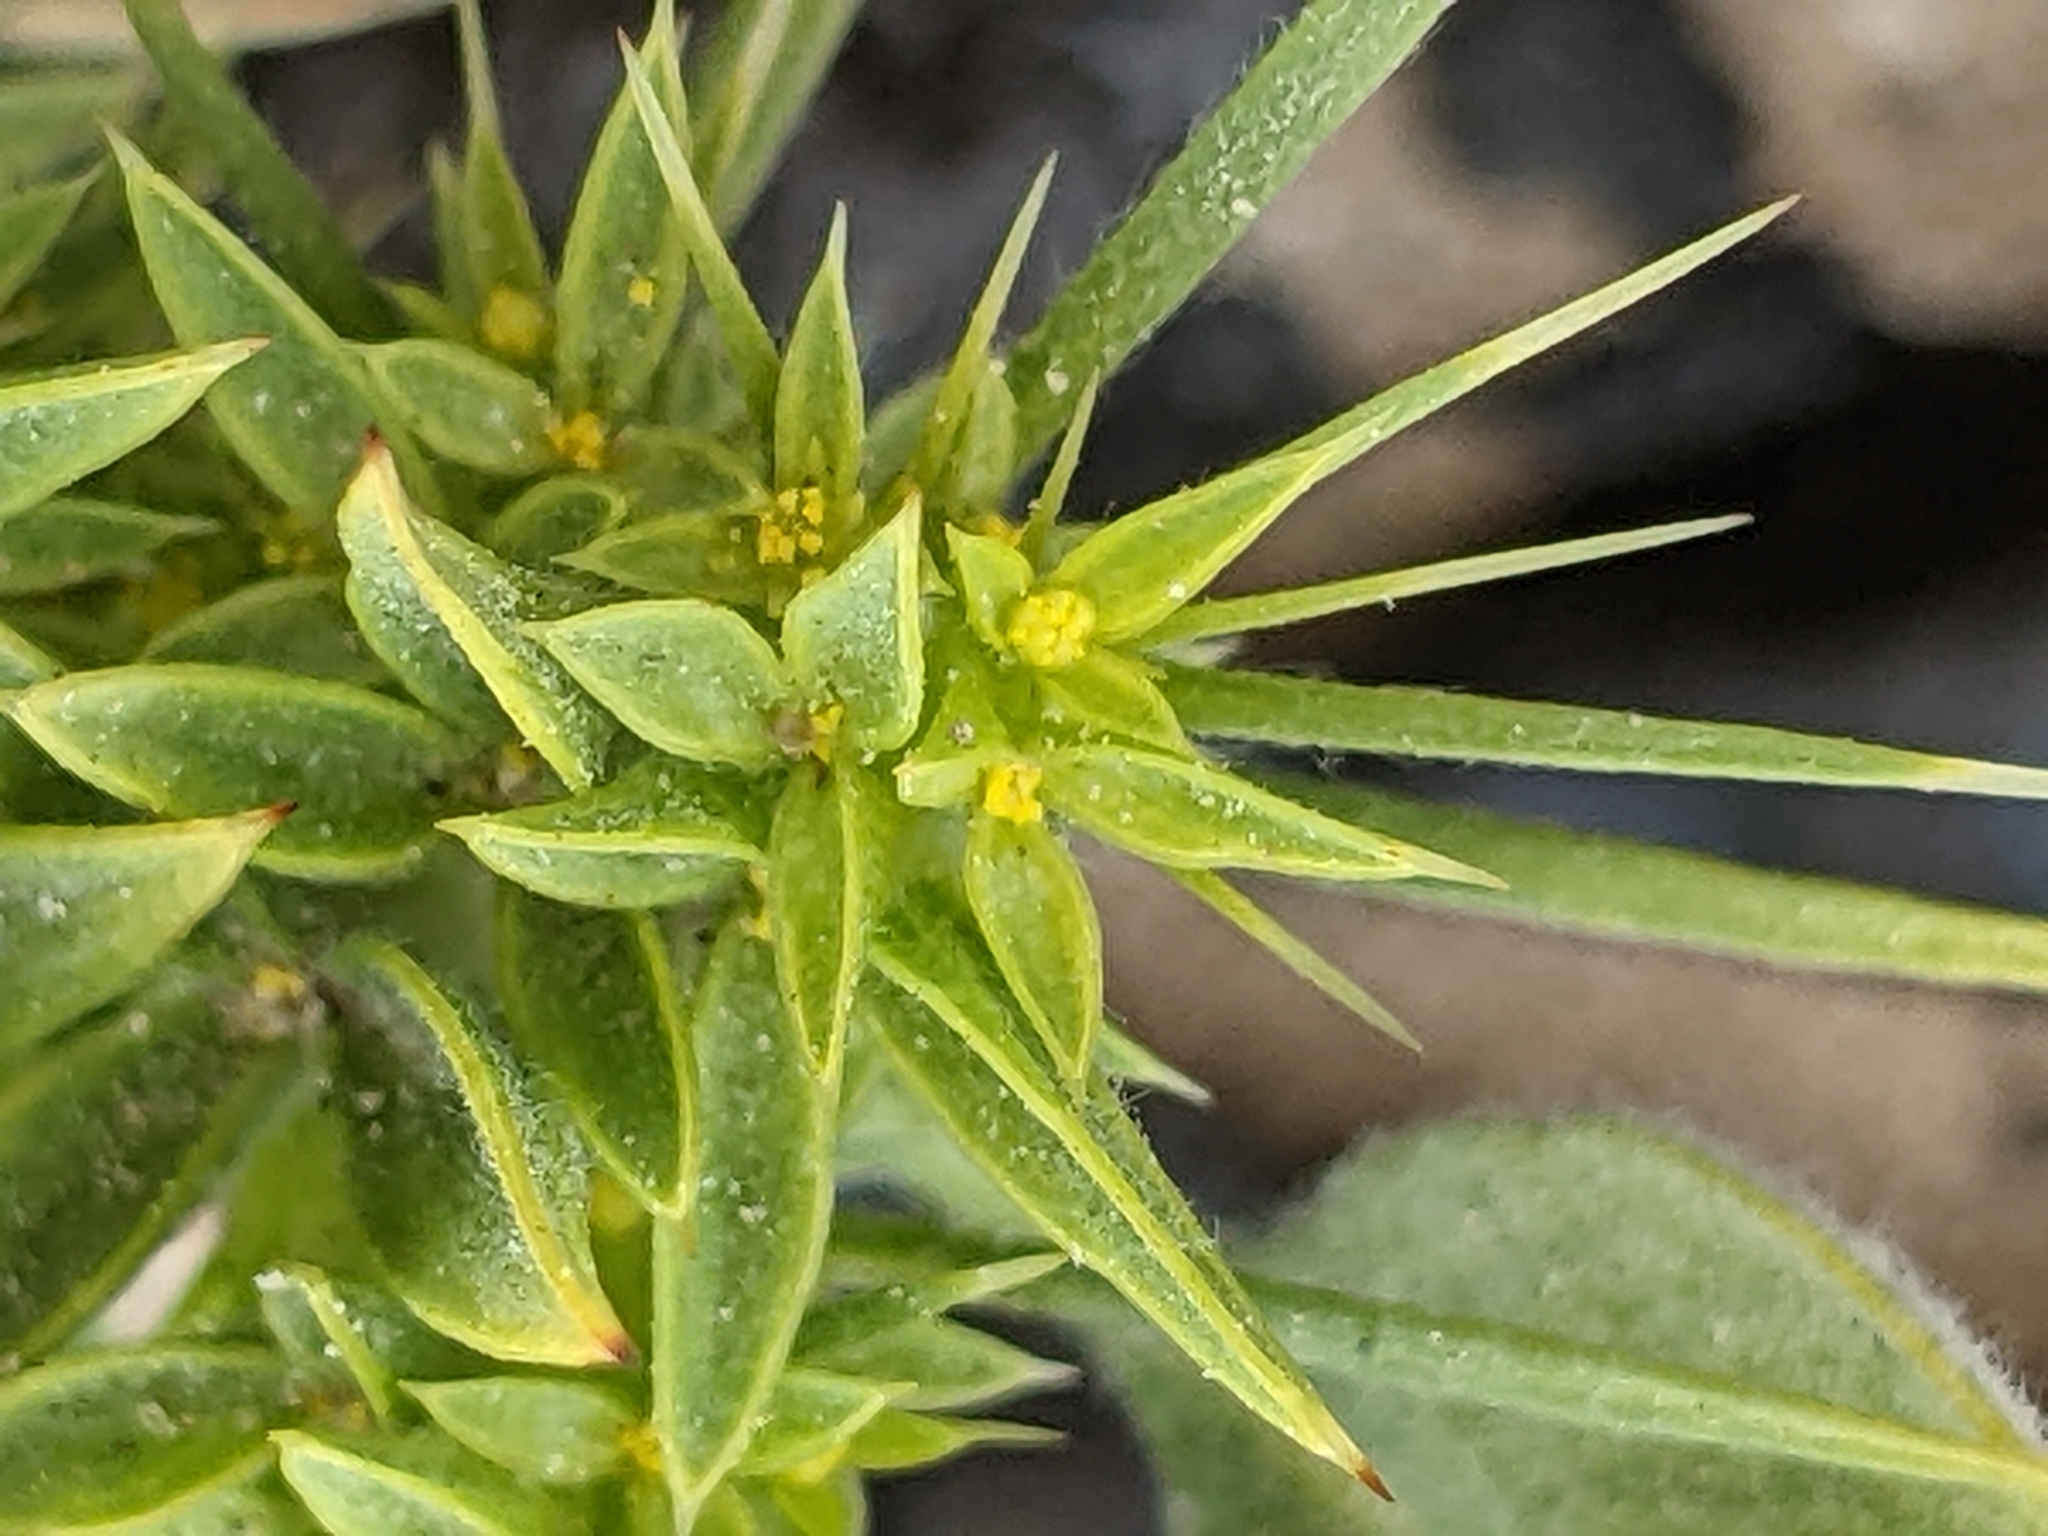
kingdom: Plantae
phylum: Tracheophyta
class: Magnoliopsida
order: Caryophyllales
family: Polygonaceae
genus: Chorizanthe
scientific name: Chorizanthe rigida
